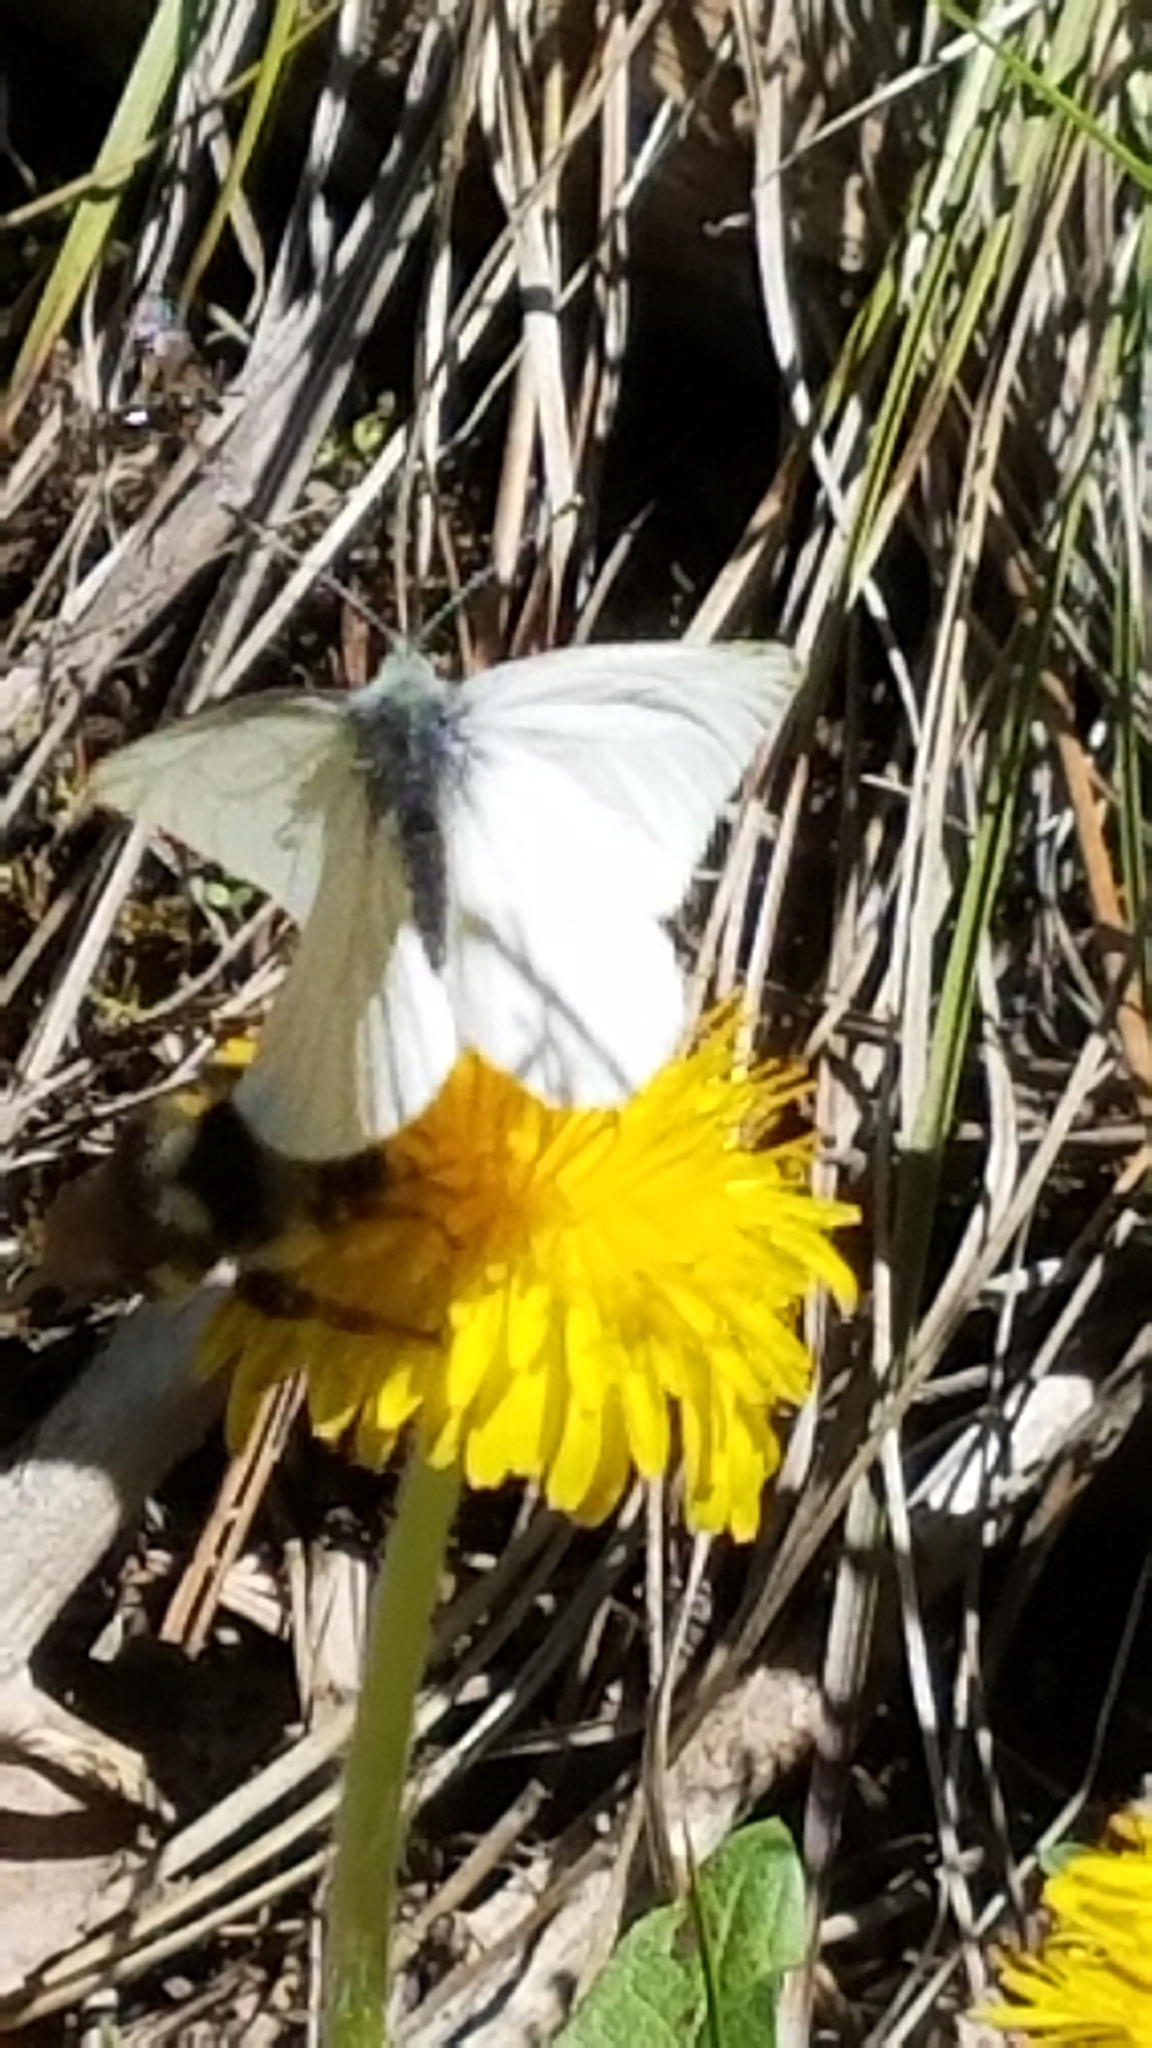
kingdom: Animalia
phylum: Arthropoda
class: Insecta
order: Lepidoptera
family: Pieridae
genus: Pieris
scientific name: Pieris marginalis
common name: Margined white
